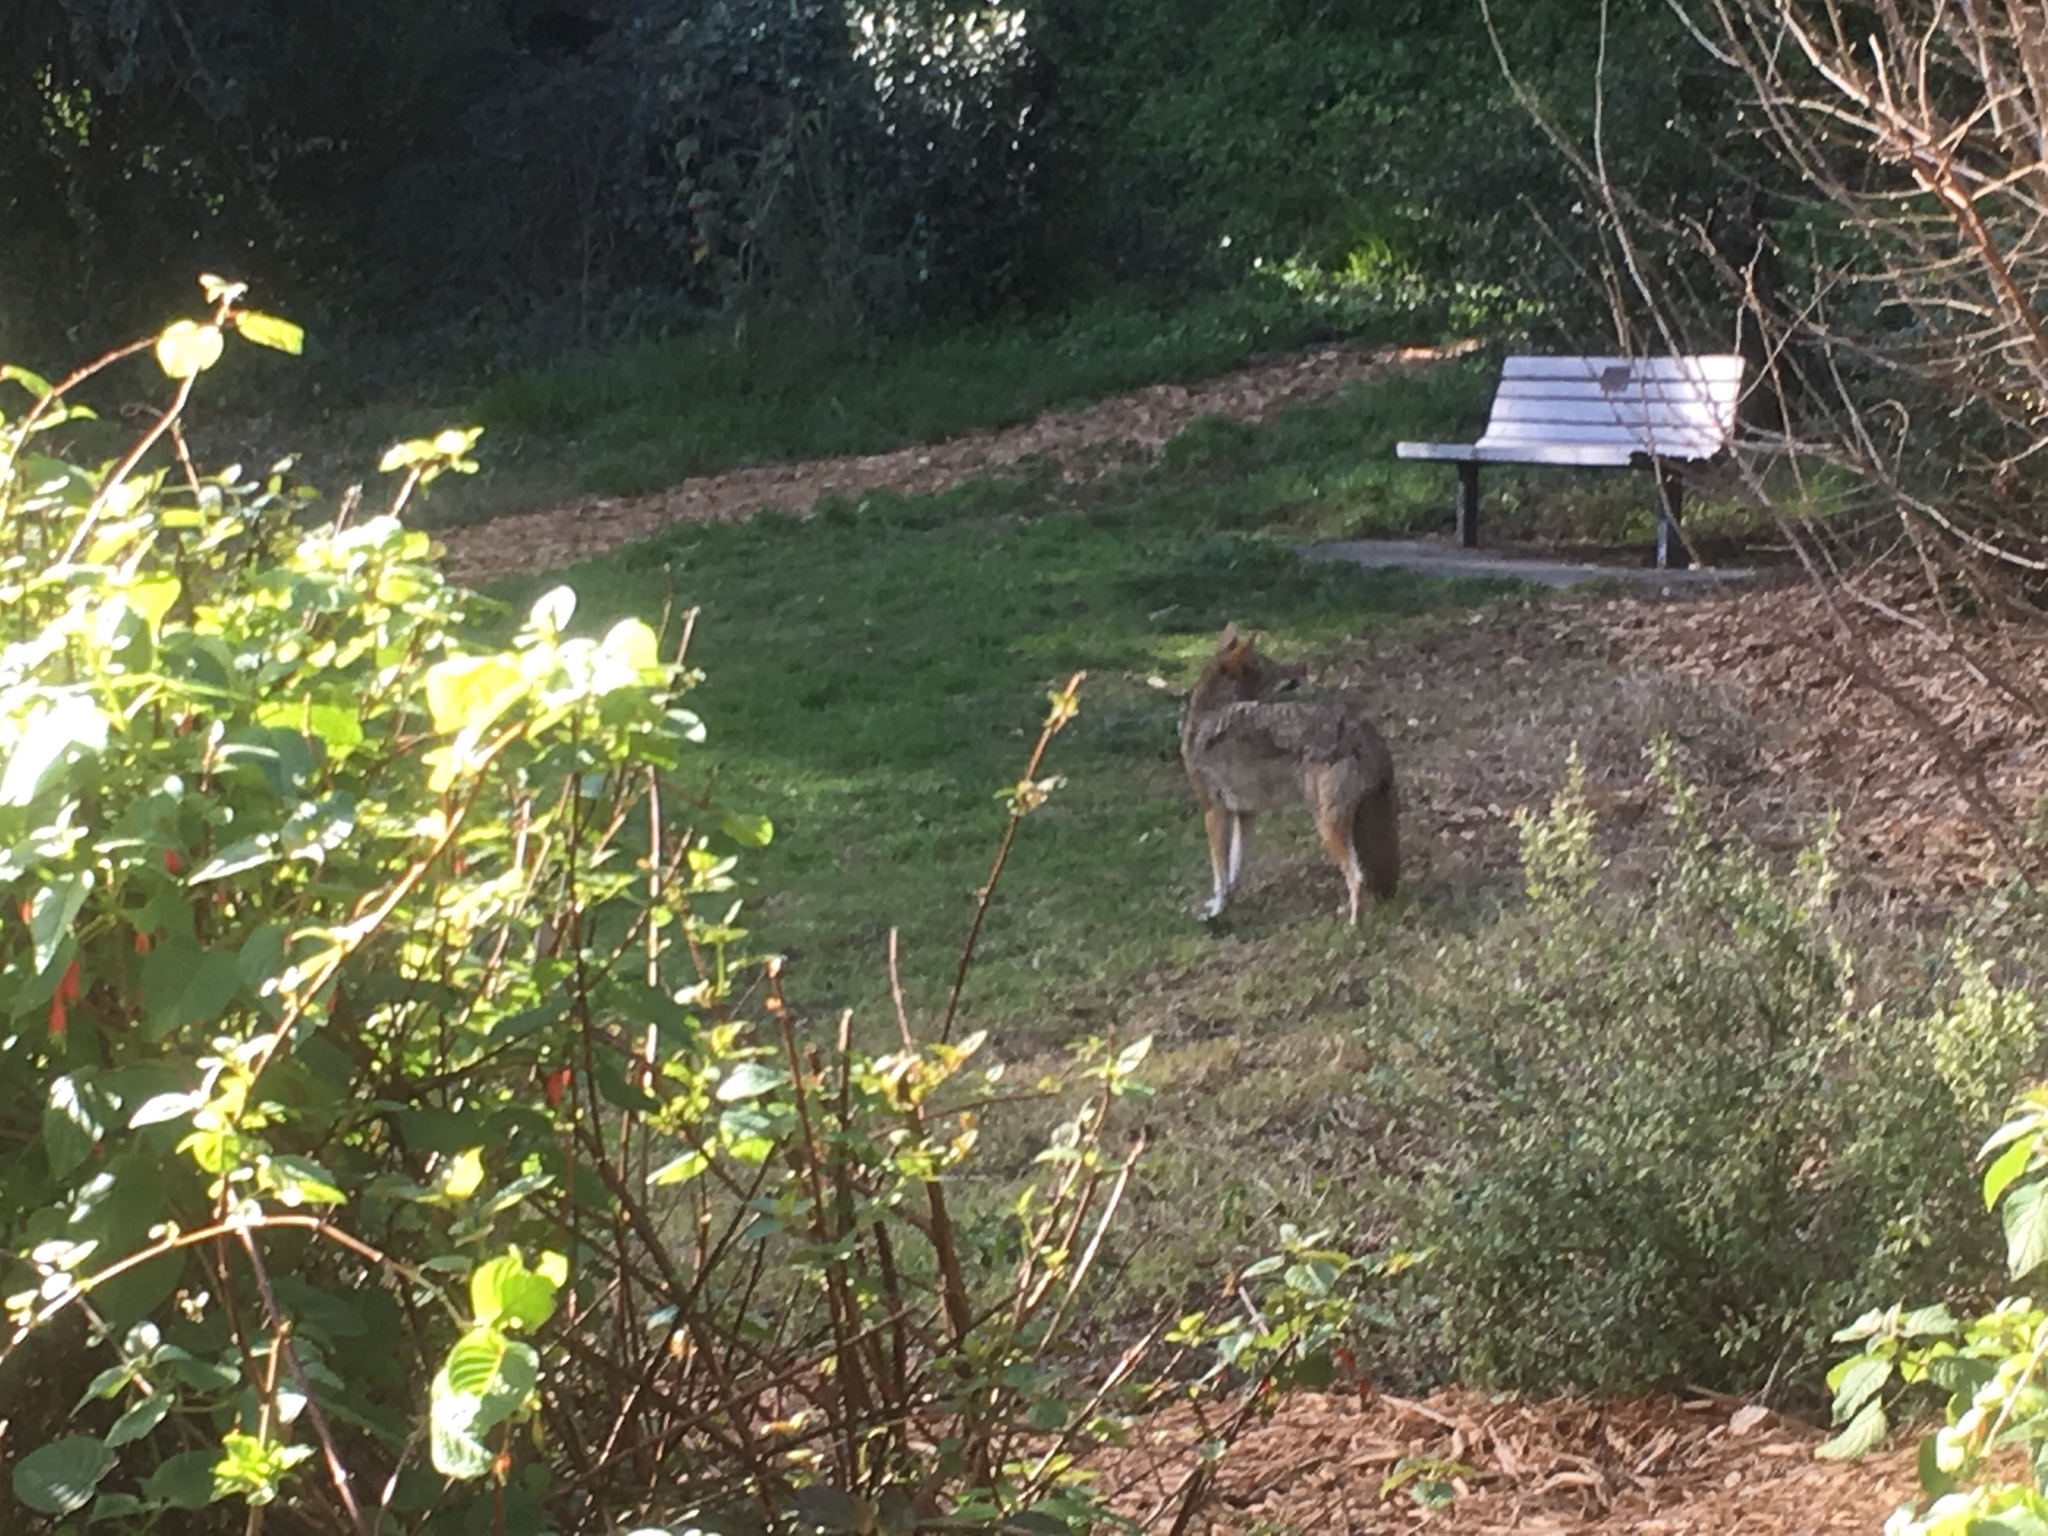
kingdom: Animalia
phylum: Chordata
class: Mammalia
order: Carnivora
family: Canidae
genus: Canis
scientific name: Canis latrans
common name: Coyote
